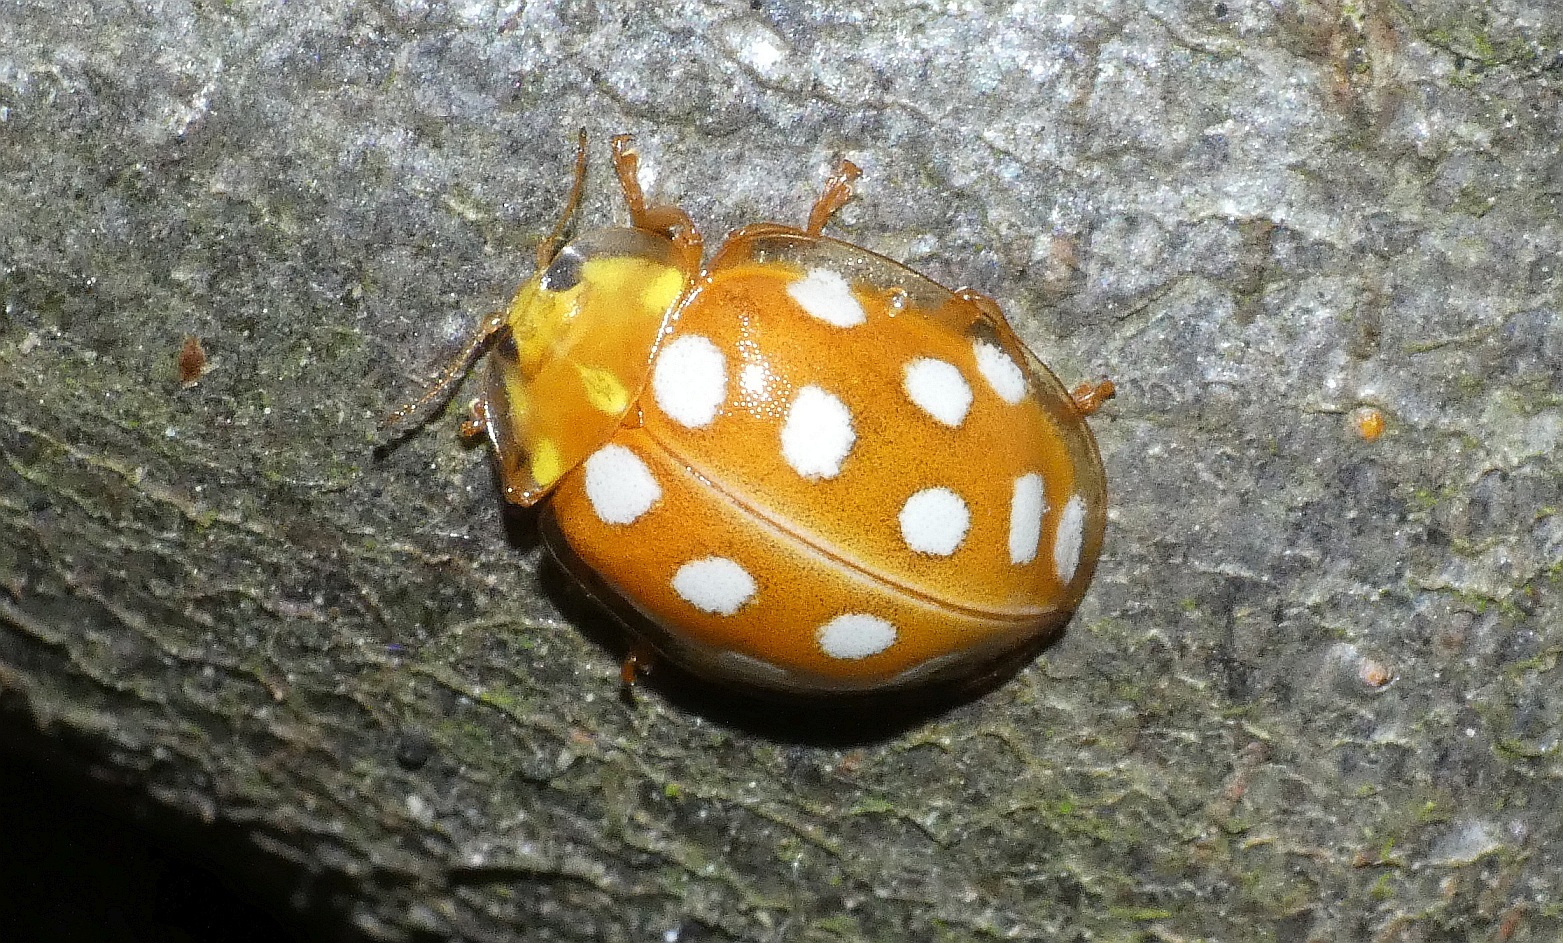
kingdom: Animalia
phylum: Arthropoda
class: Insecta
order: Coleoptera
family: Coccinellidae
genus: Halyzia
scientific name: Halyzia sedecimguttata
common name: Orange ladybird
